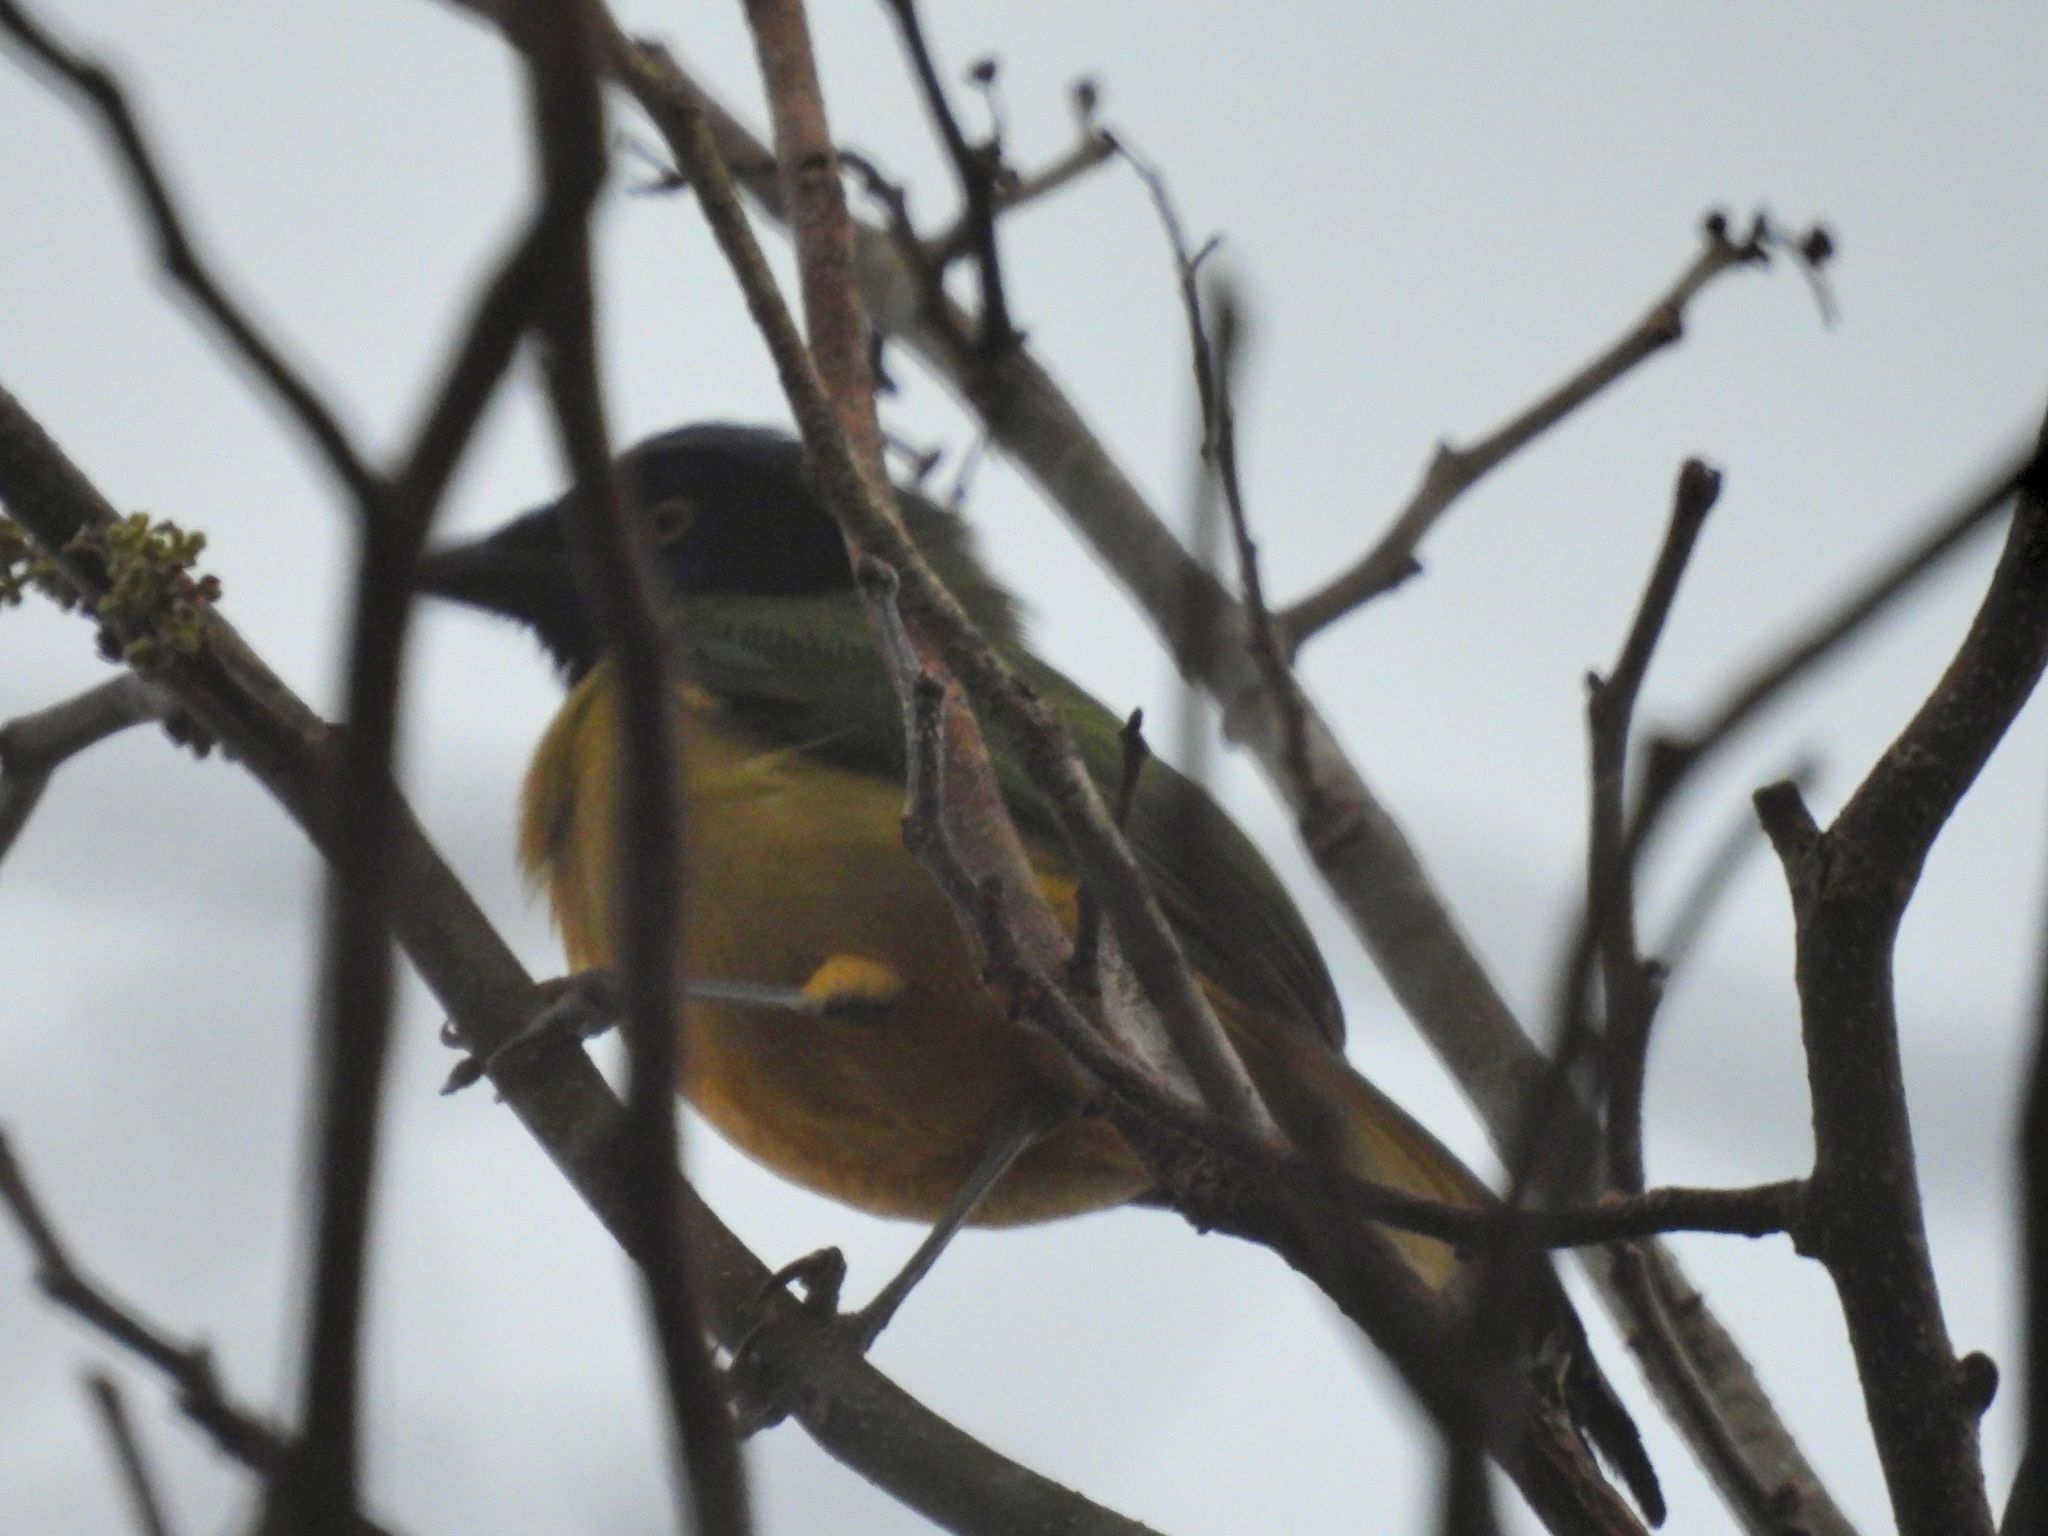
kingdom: Animalia
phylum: Chordata
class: Aves
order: Passeriformes
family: Corvidae
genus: Cyanocorax
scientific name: Cyanocorax yncas
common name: Green jay
